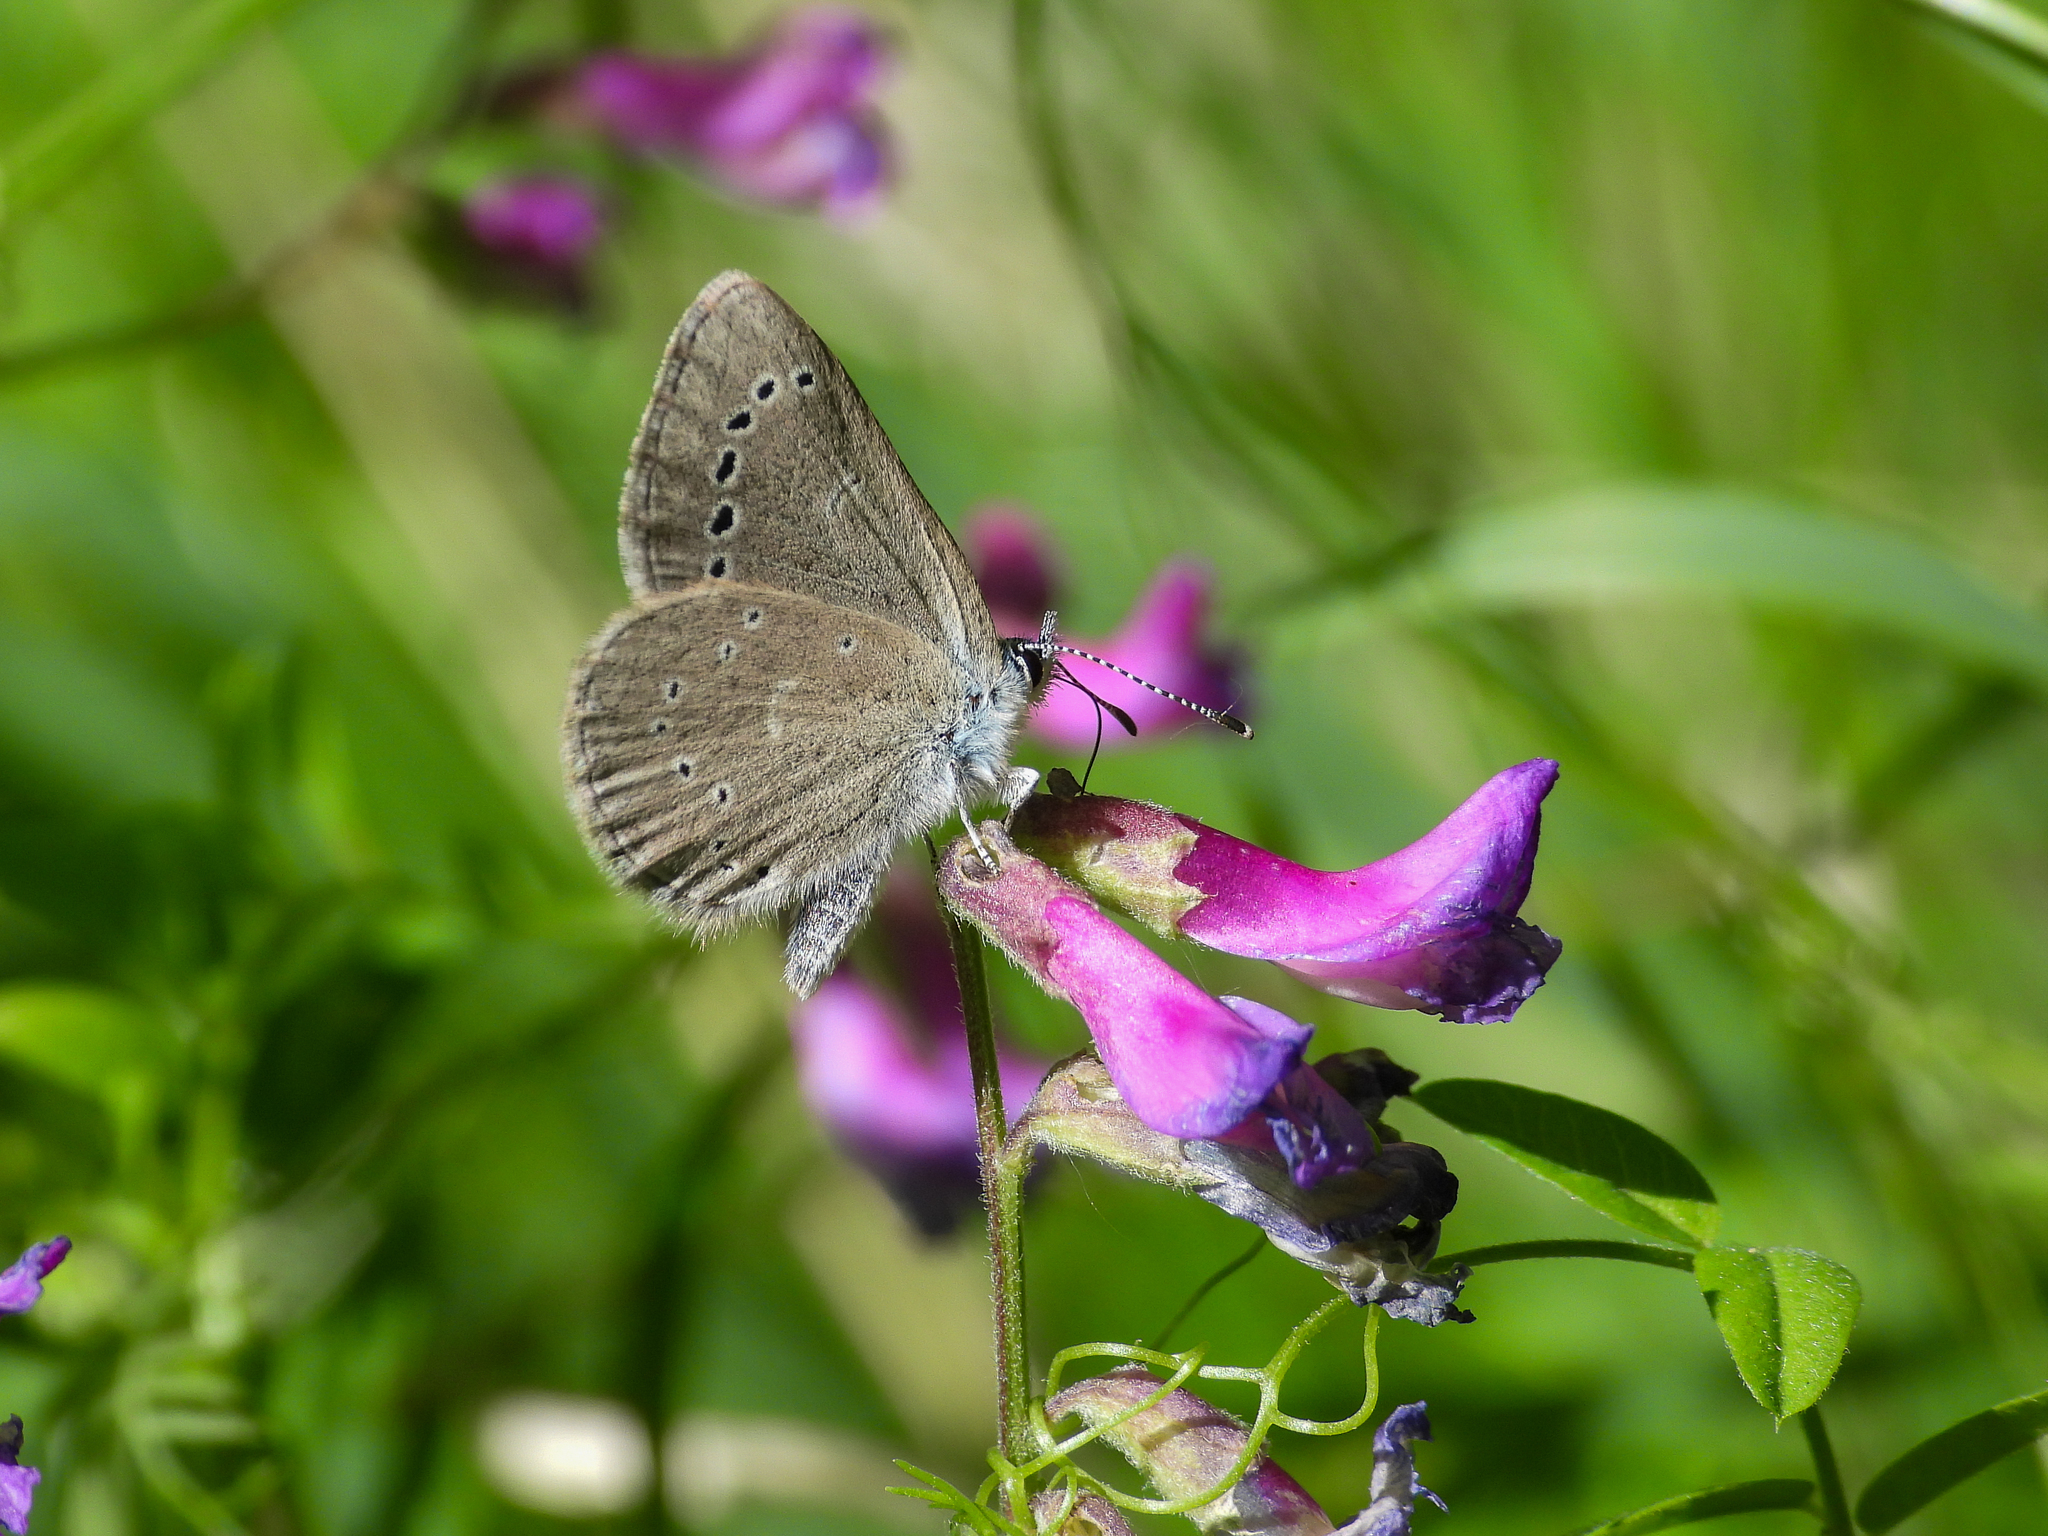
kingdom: Animalia
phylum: Arthropoda
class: Insecta
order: Lepidoptera
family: Lycaenidae
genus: Glaucopsyche
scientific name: Glaucopsyche lygdamus
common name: Silvery blue
